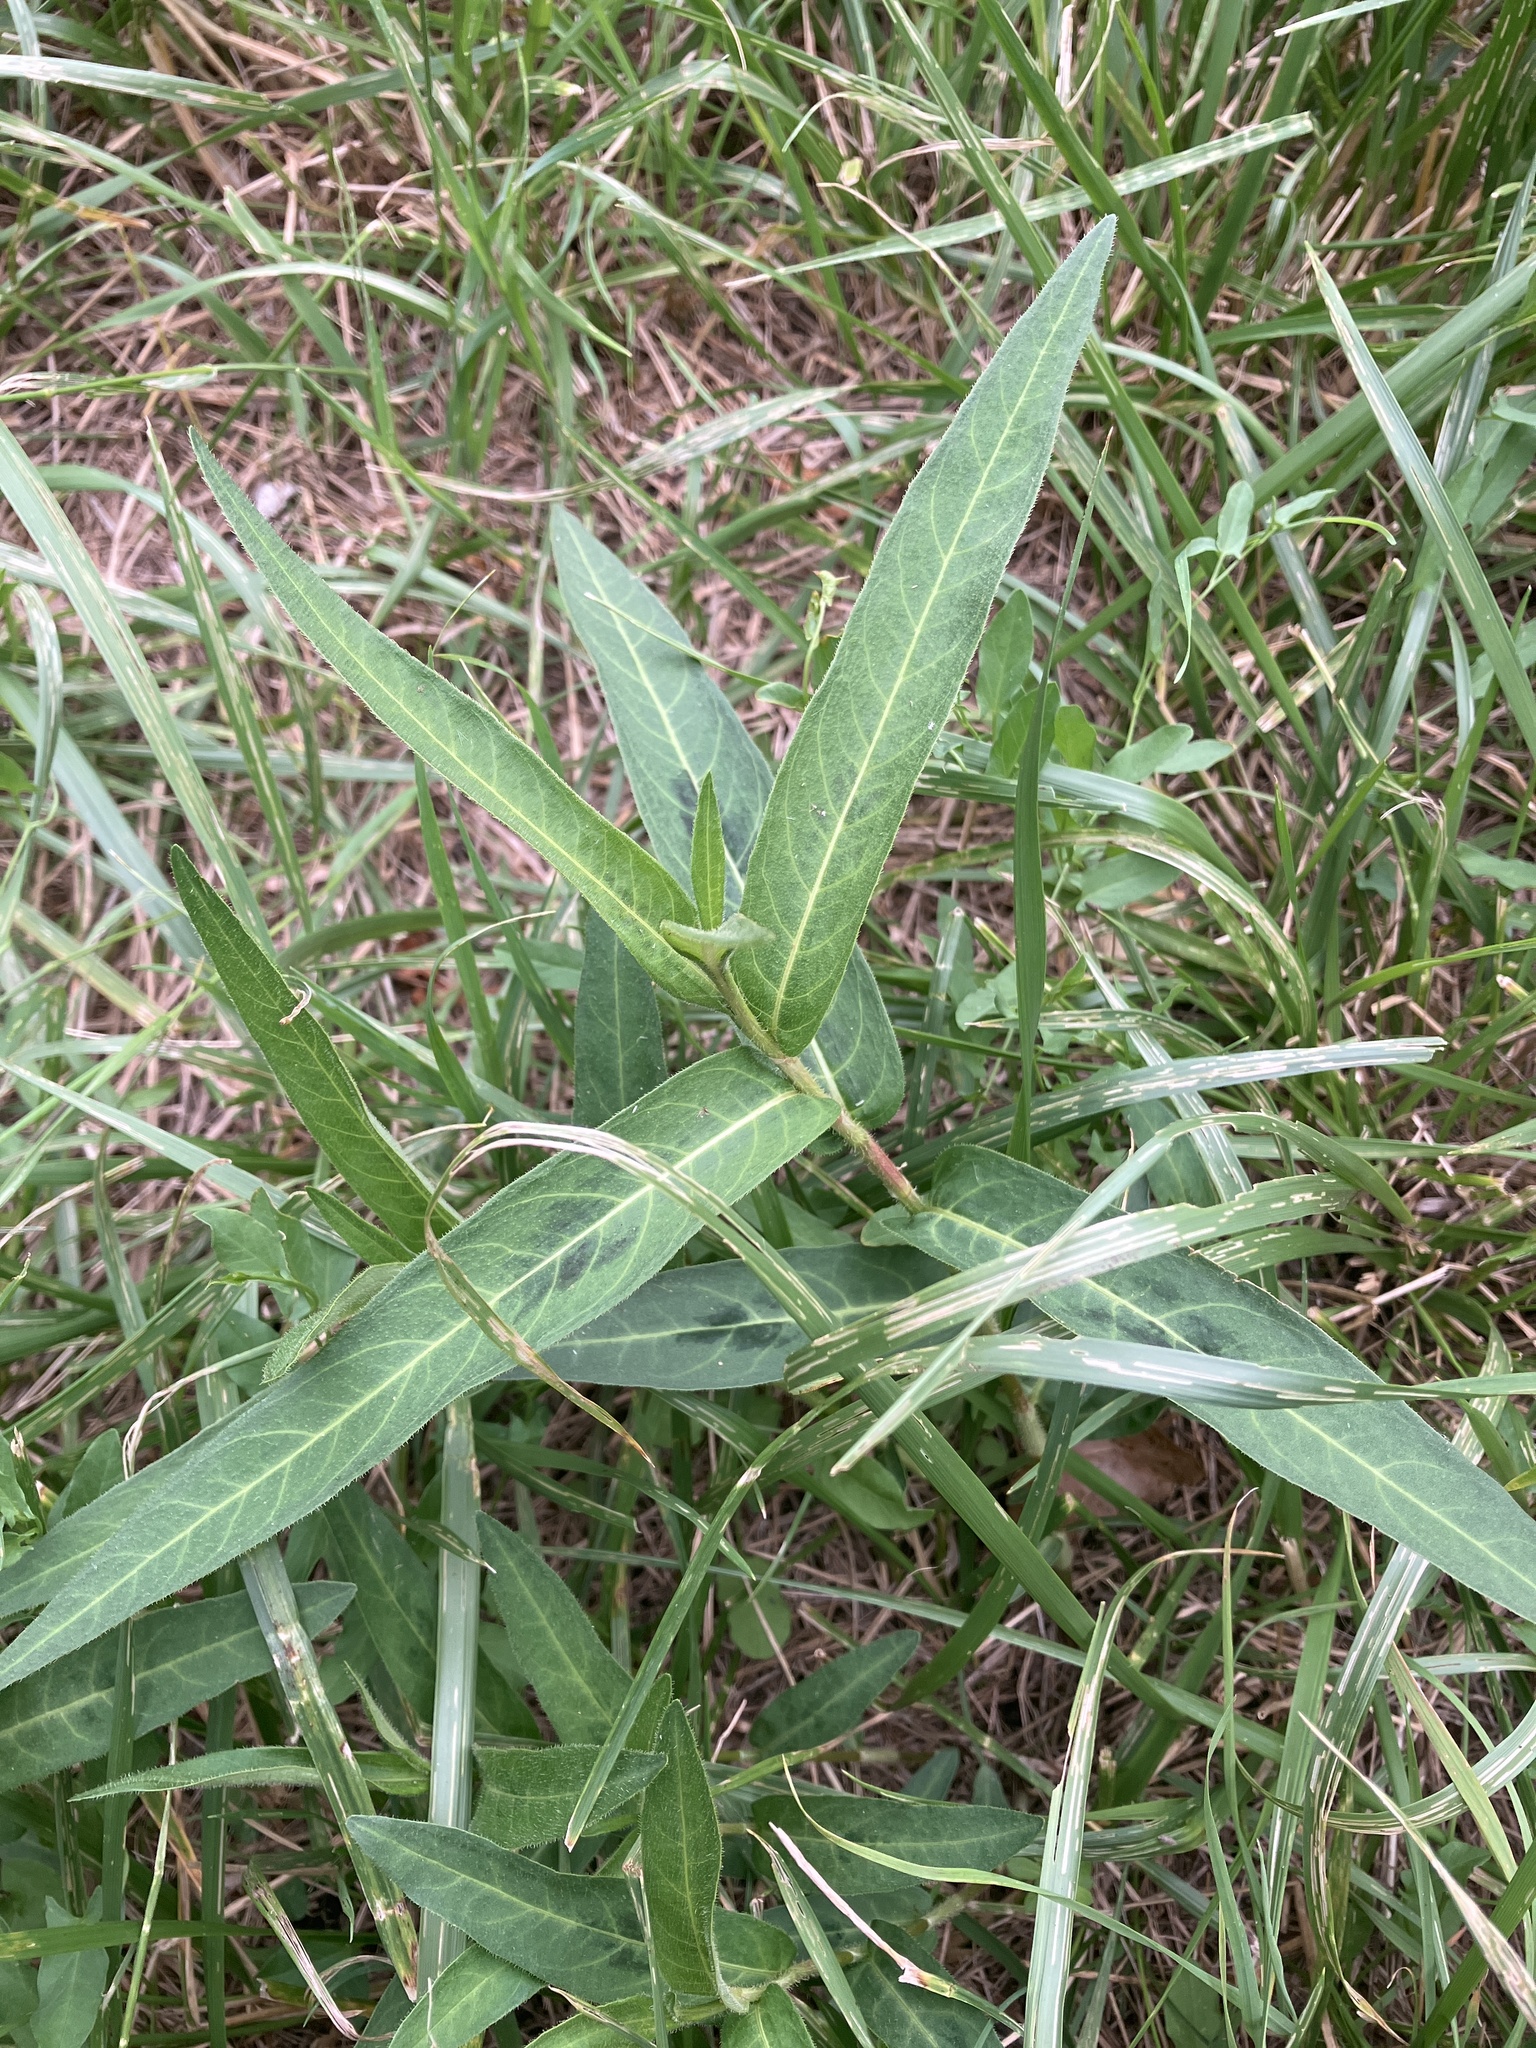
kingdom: Plantae
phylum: Tracheophyta
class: Magnoliopsida
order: Caryophyllales
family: Polygonaceae
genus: Persicaria
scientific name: Persicaria amphibia
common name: Amphibious bistort
